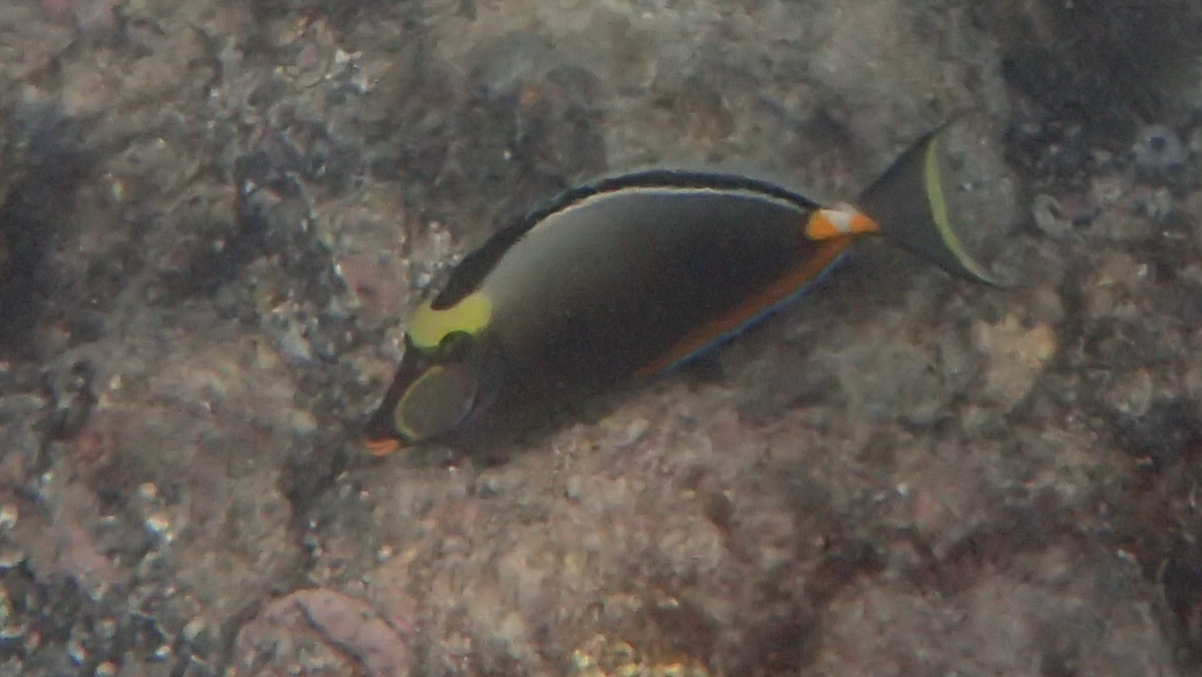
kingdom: Animalia
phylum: Chordata
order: Perciformes
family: Acanthuridae
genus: Naso
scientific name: Naso lituratus
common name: Orangespine unicornfish
